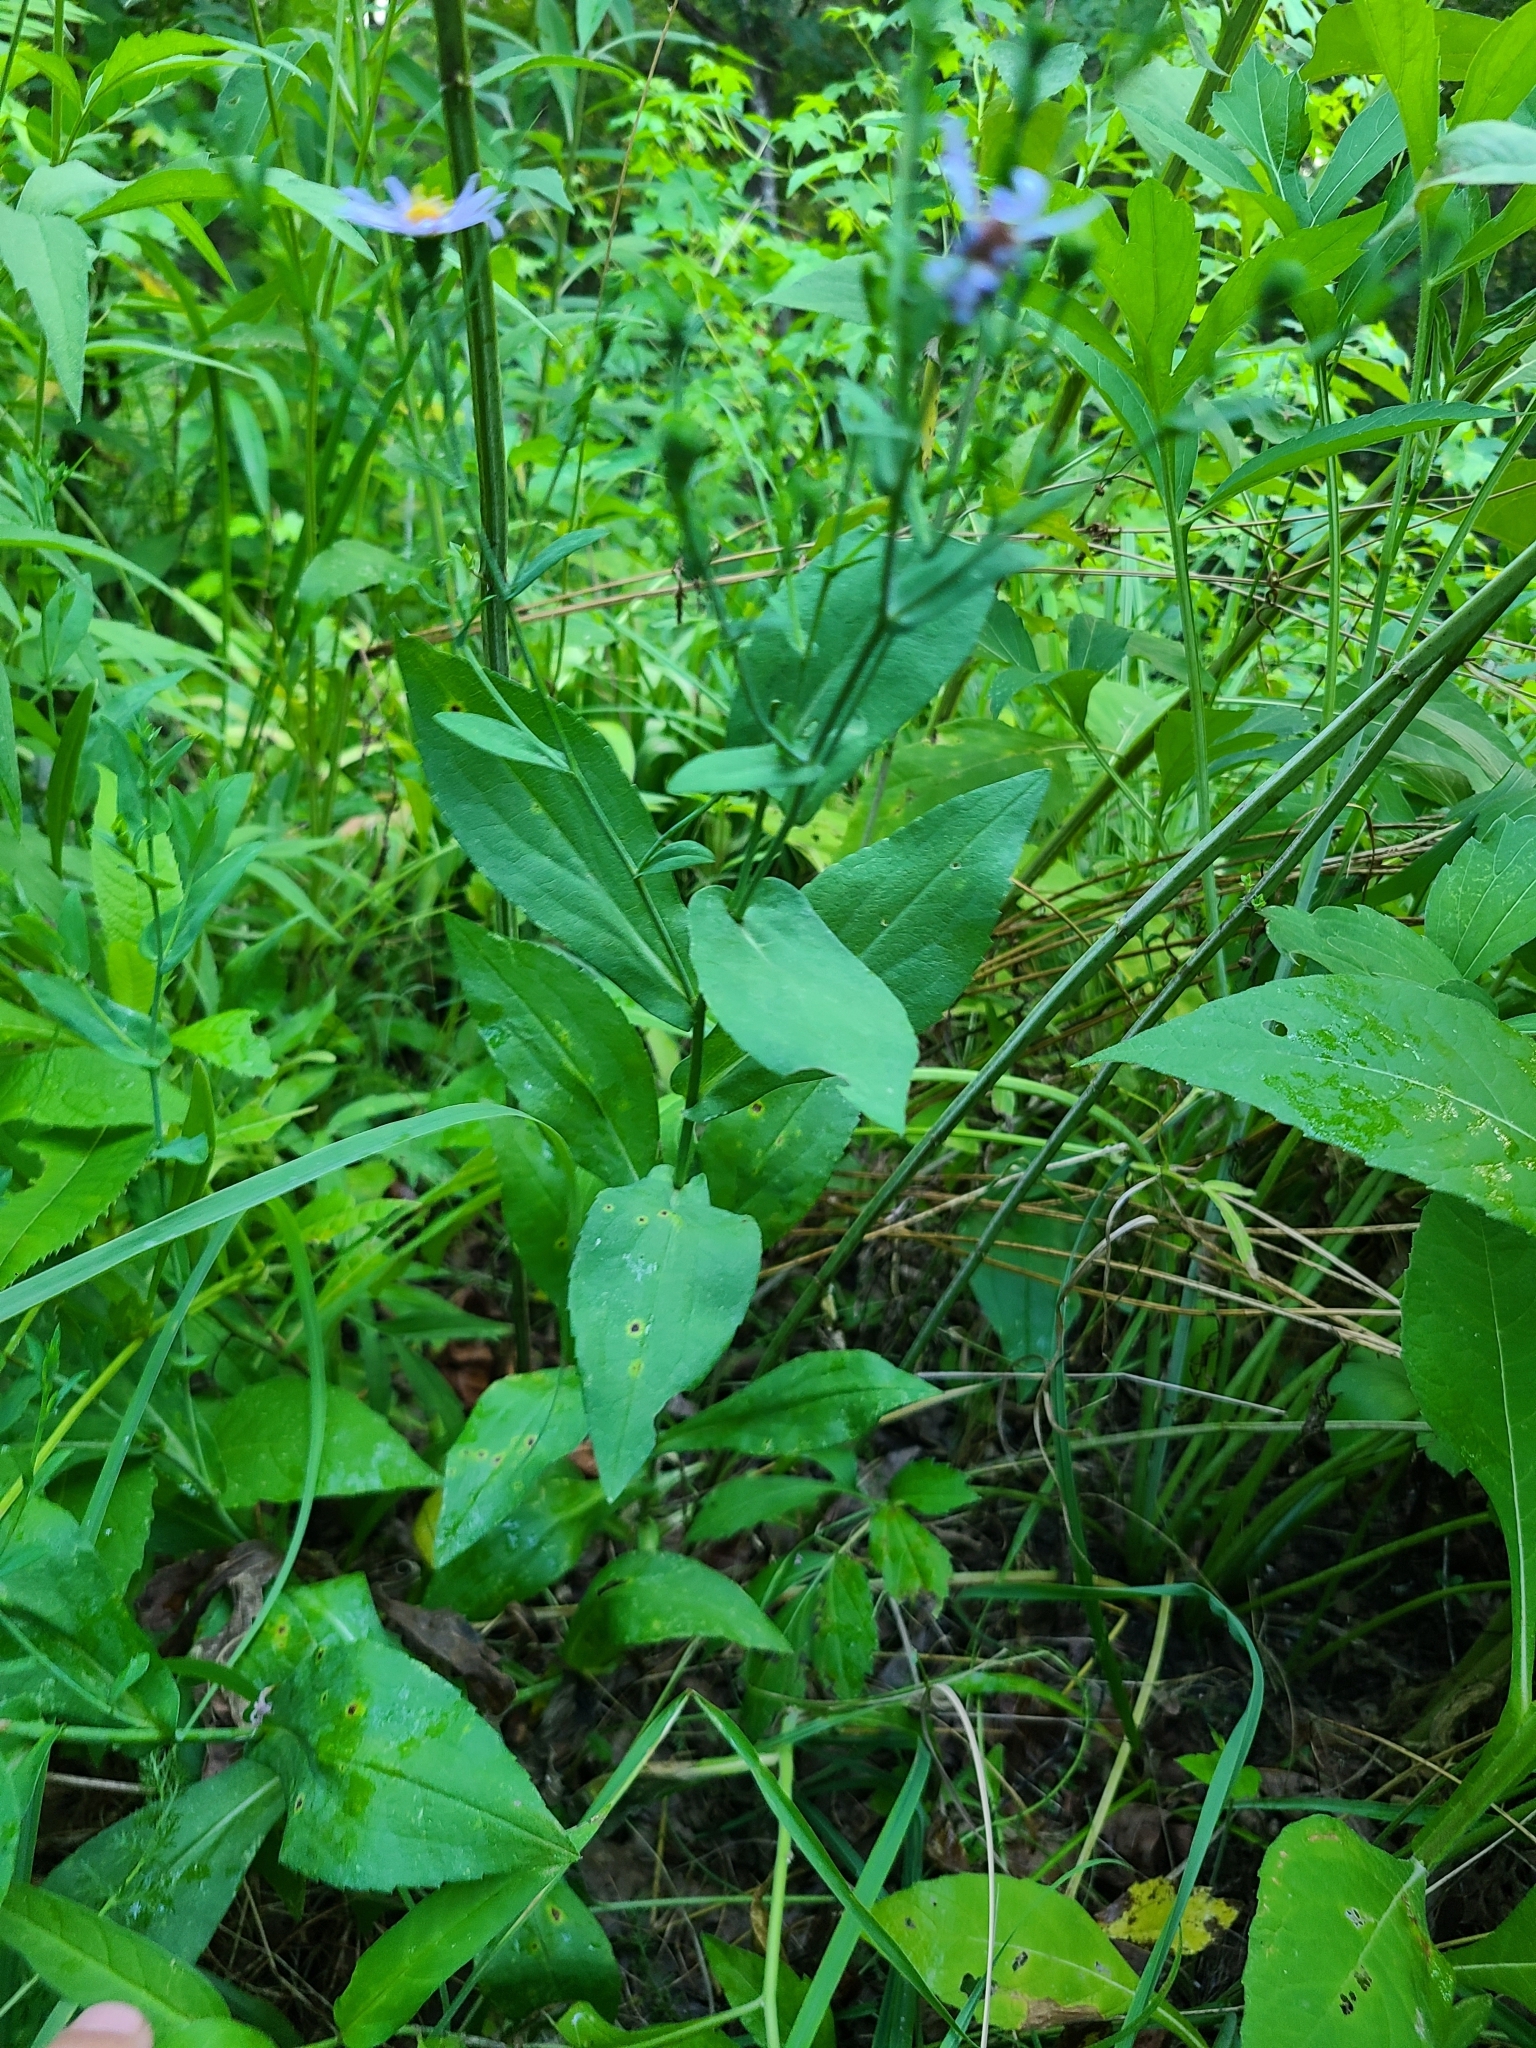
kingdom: Plantae
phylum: Tracheophyta
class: Magnoliopsida
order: Asterales
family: Asteraceae
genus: Symphyotrichum
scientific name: Symphyotrichum patens
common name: Late purple aster
